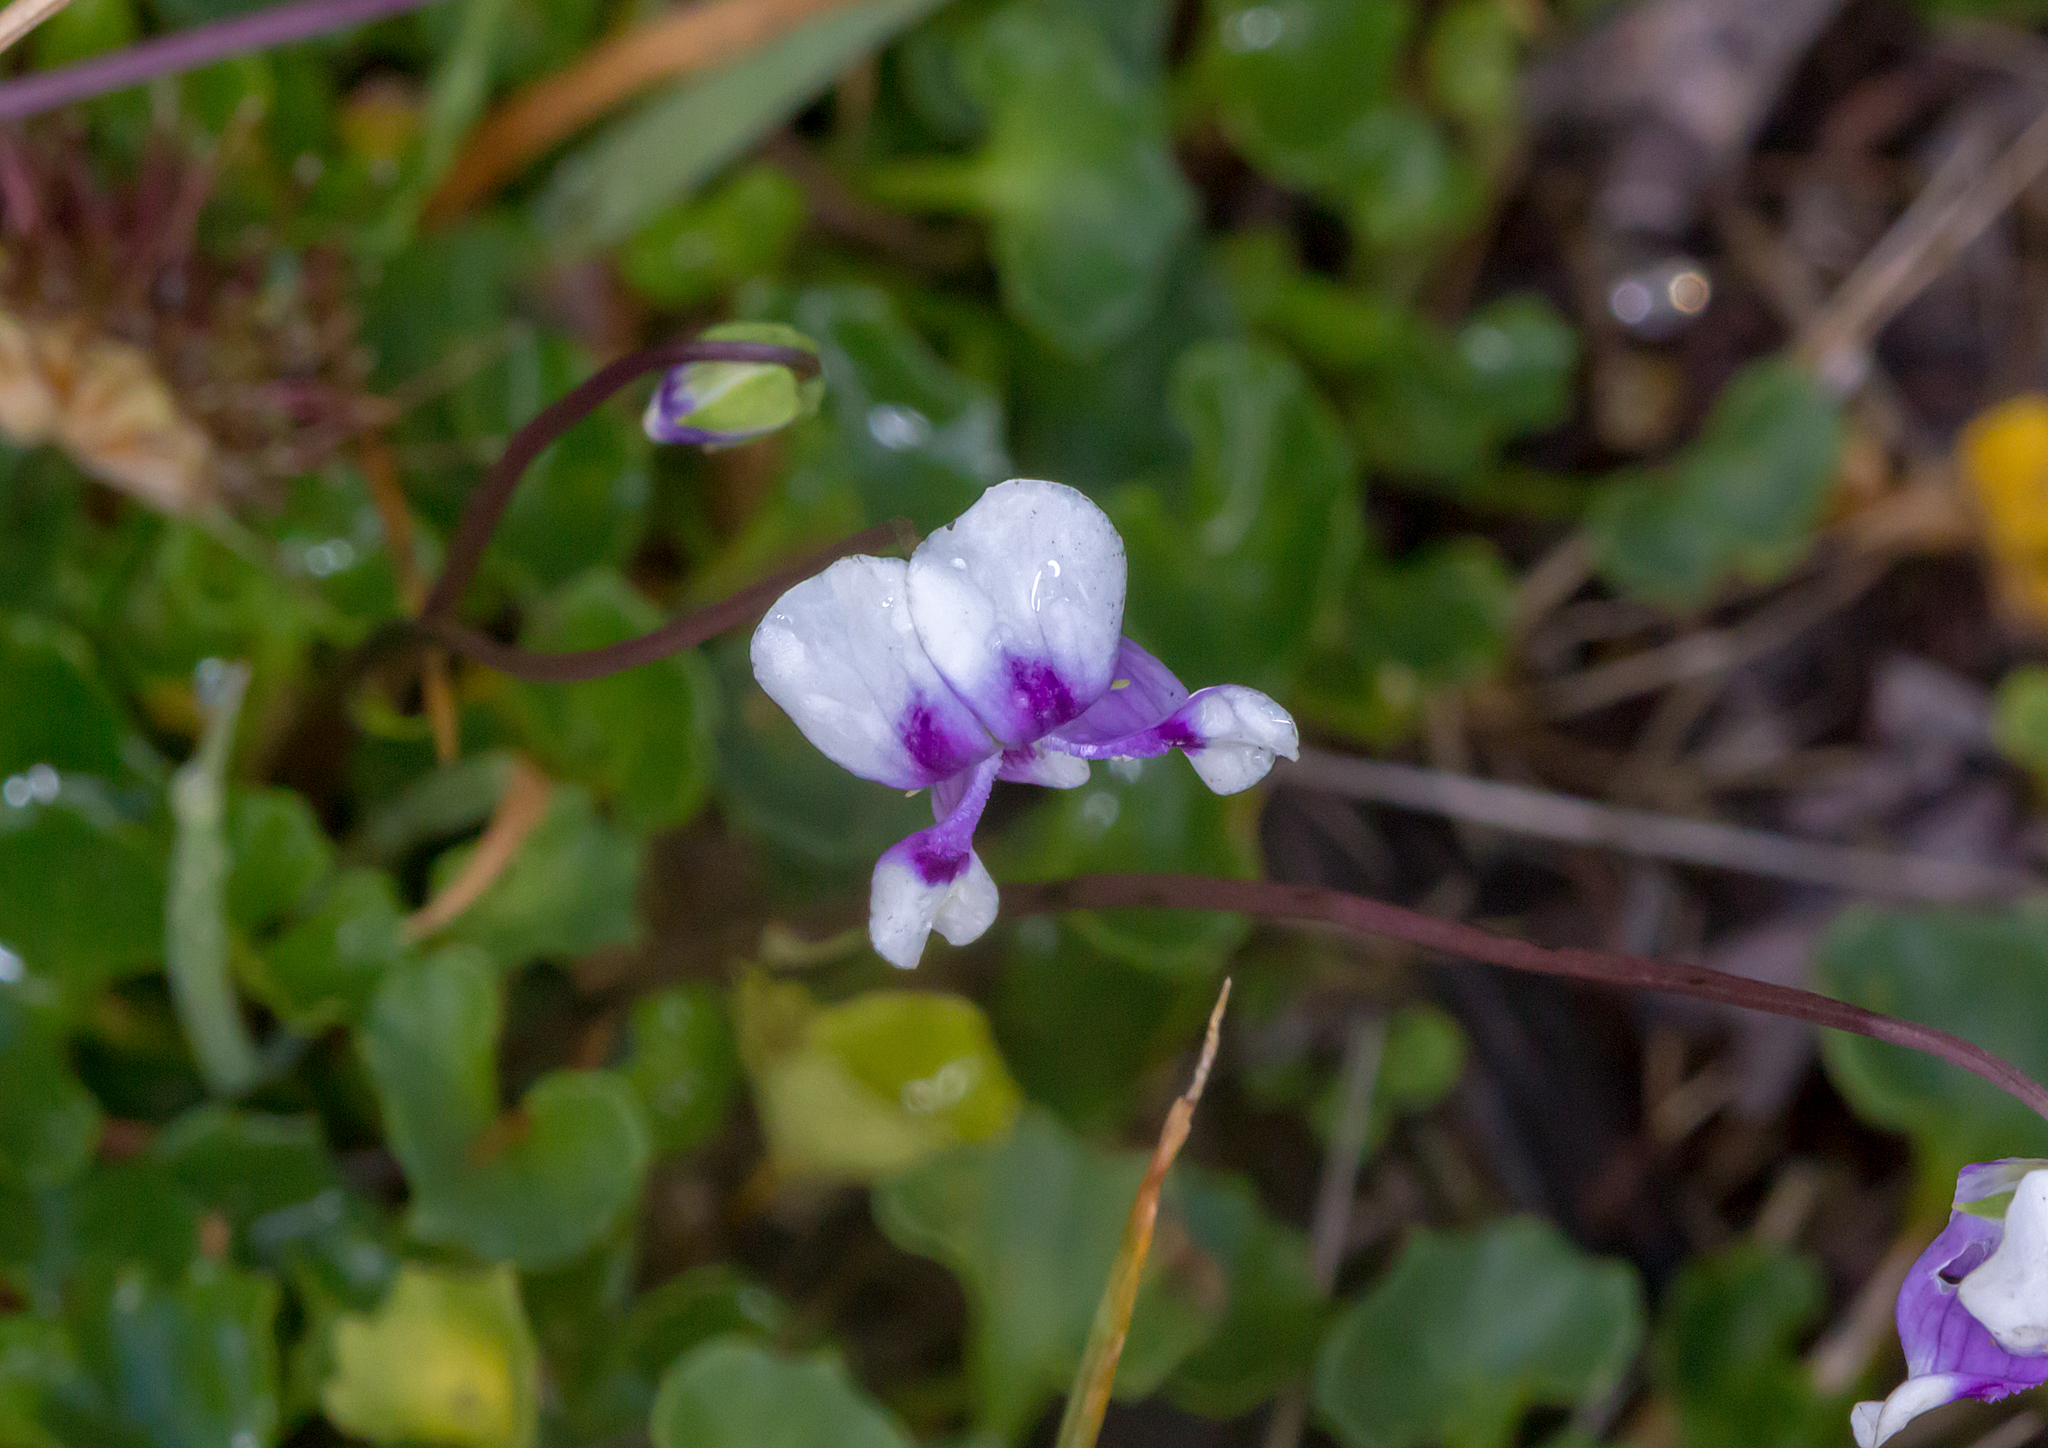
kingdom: Plantae
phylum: Tracheophyta
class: Magnoliopsida
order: Malpighiales
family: Violaceae
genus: Viola
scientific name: Viola hederacea
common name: Australian violet
